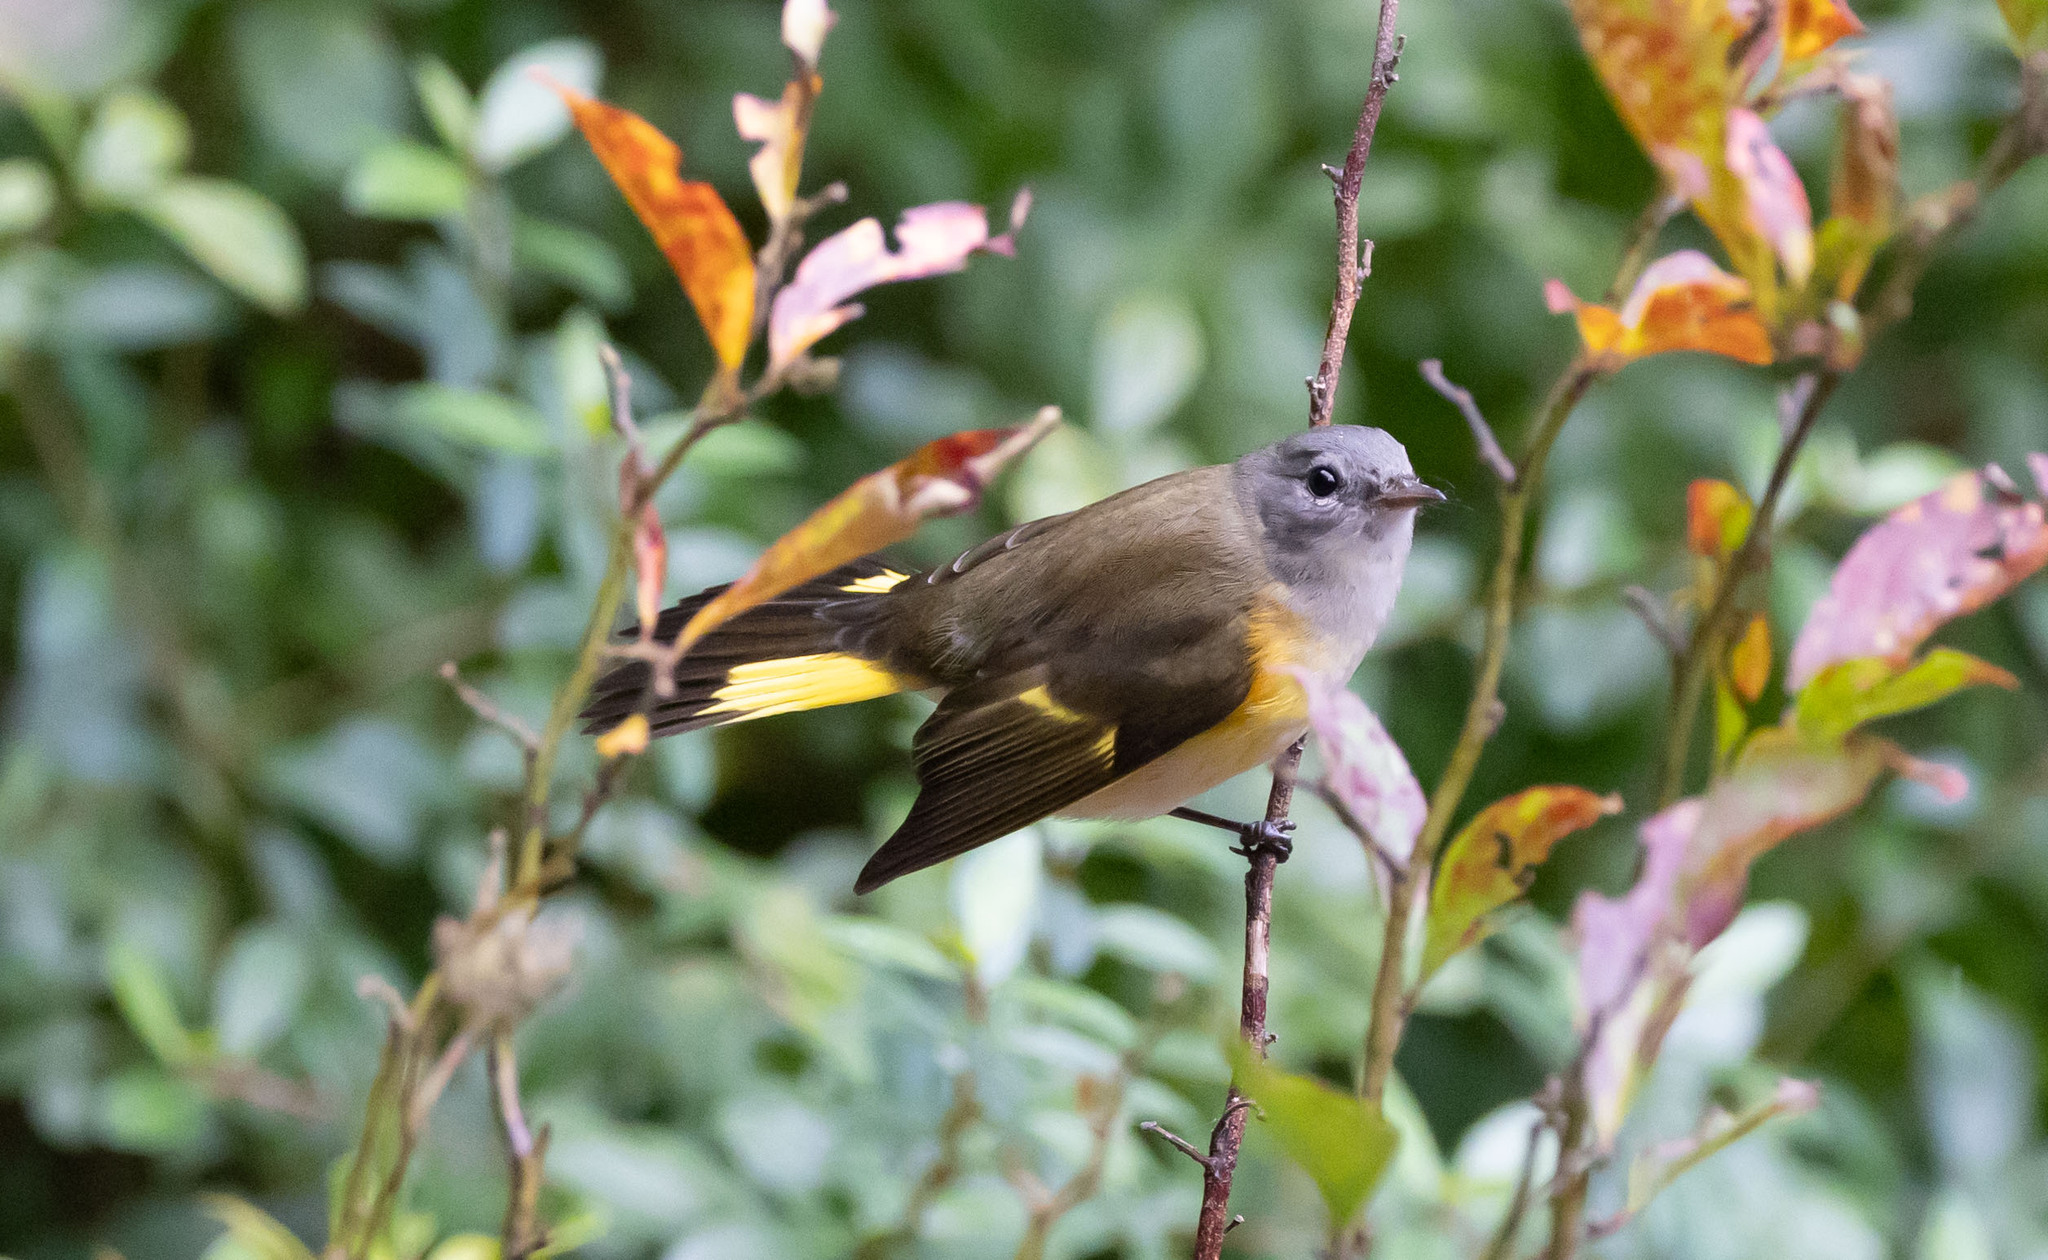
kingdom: Animalia
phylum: Chordata
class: Aves
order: Passeriformes
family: Parulidae
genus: Setophaga
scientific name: Setophaga ruticilla
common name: American redstart
